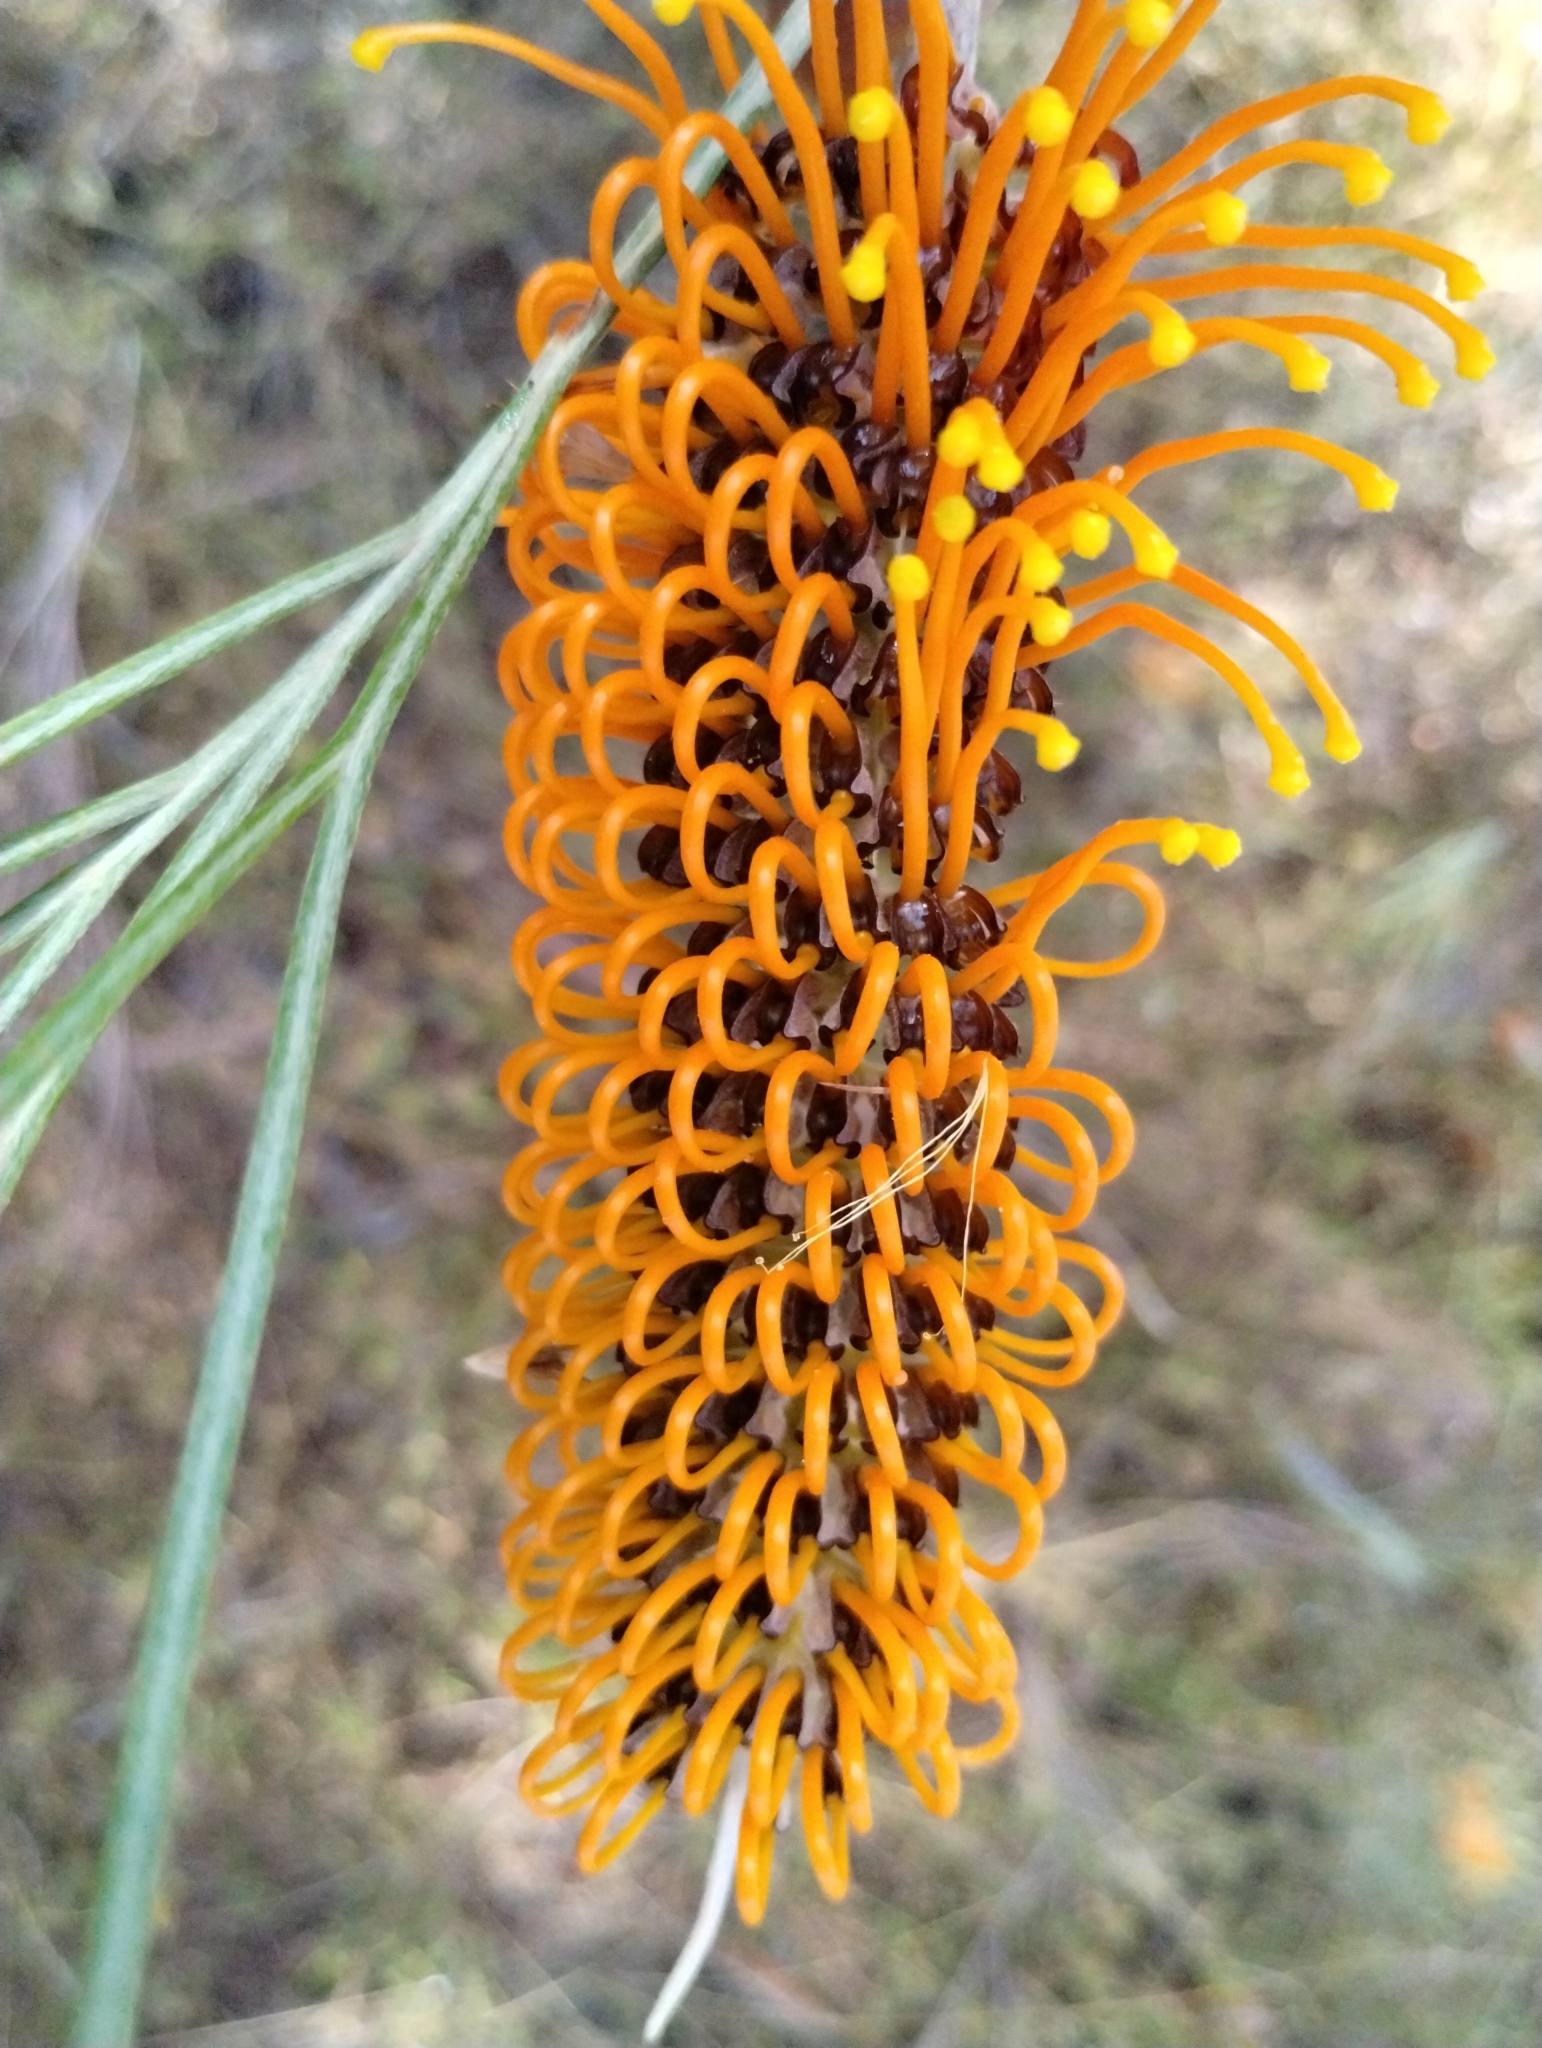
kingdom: Plantae
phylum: Tracheophyta
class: Magnoliopsida
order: Proteales
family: Proteaceae
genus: Grevillea
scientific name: Grevillea pteridifolia
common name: Golden grevillea
